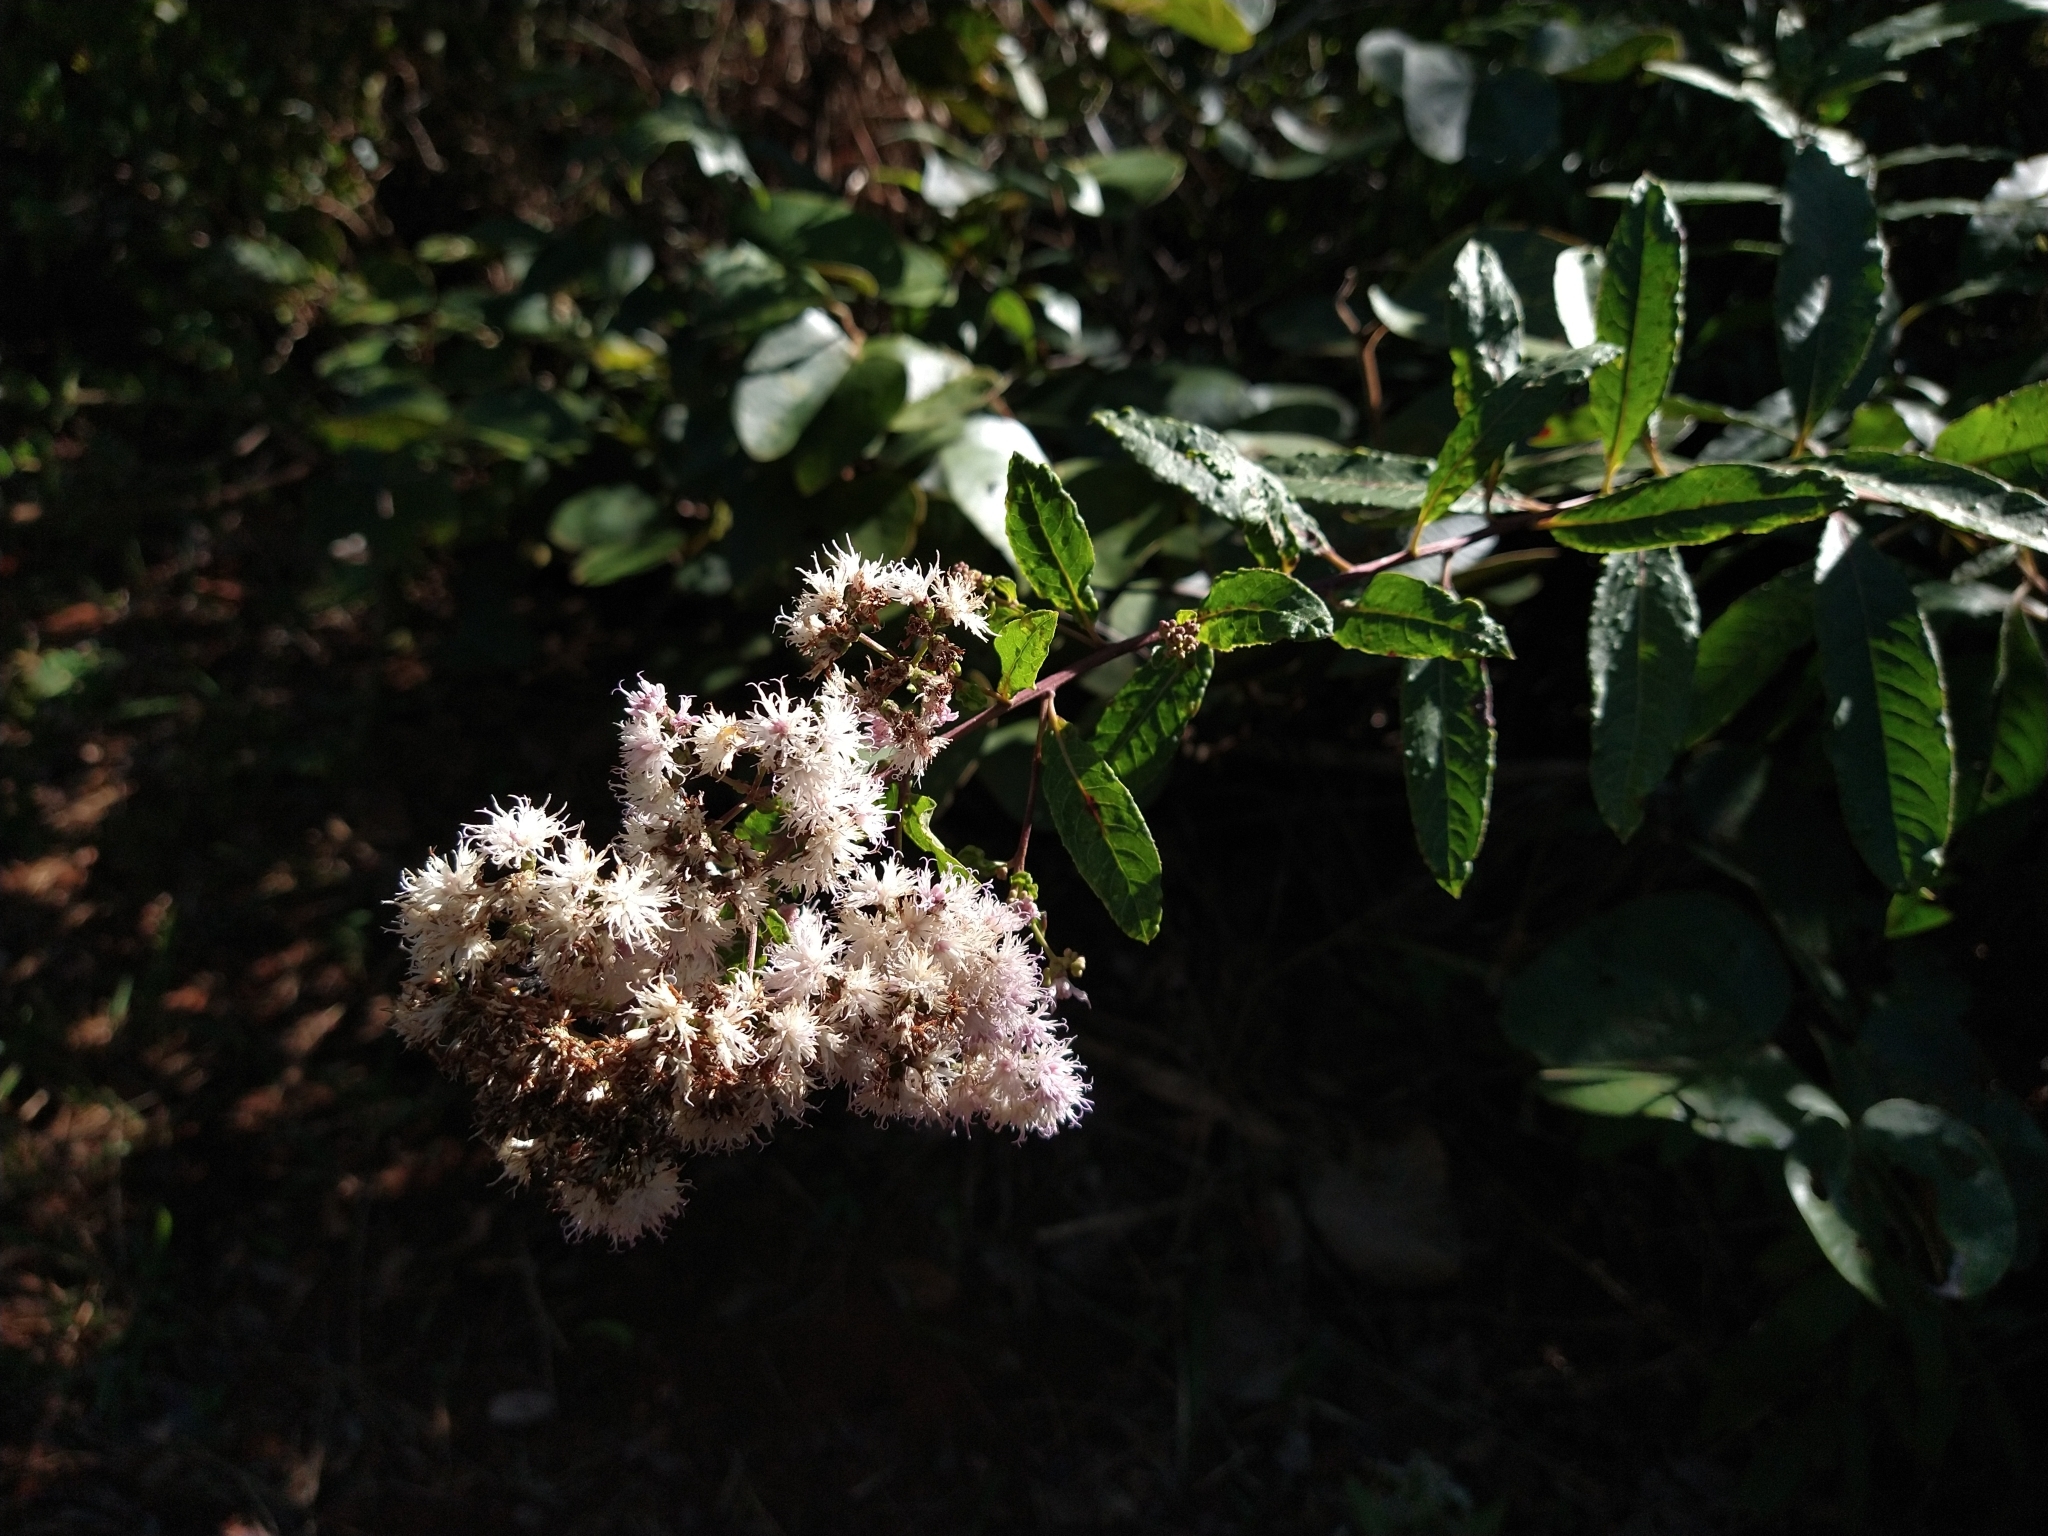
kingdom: Plantae
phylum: Tracheophyta
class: Magnoliopsida
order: Asterales
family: Asteraceae
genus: Vernonanthura
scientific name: Vernonanthura polyanthes
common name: Tree aster
